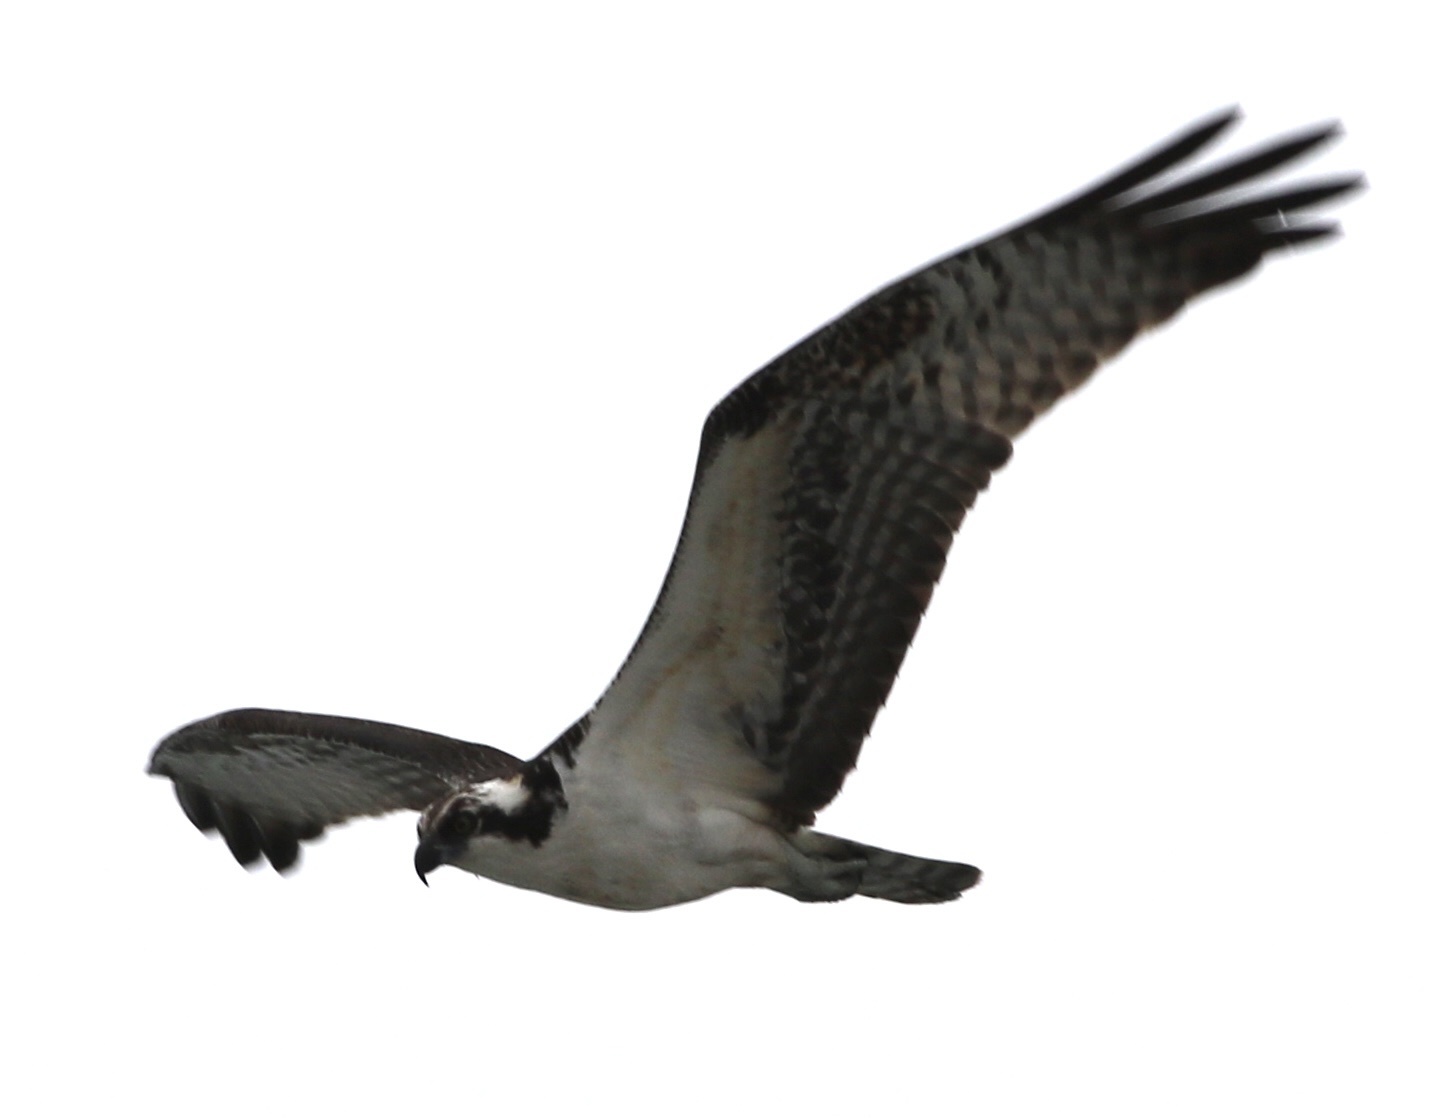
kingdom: Animalia
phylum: Chordata
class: Aves
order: Accipitriformes
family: Pandionidae
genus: Pandion
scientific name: Pandion haliaetus
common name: Osprey
